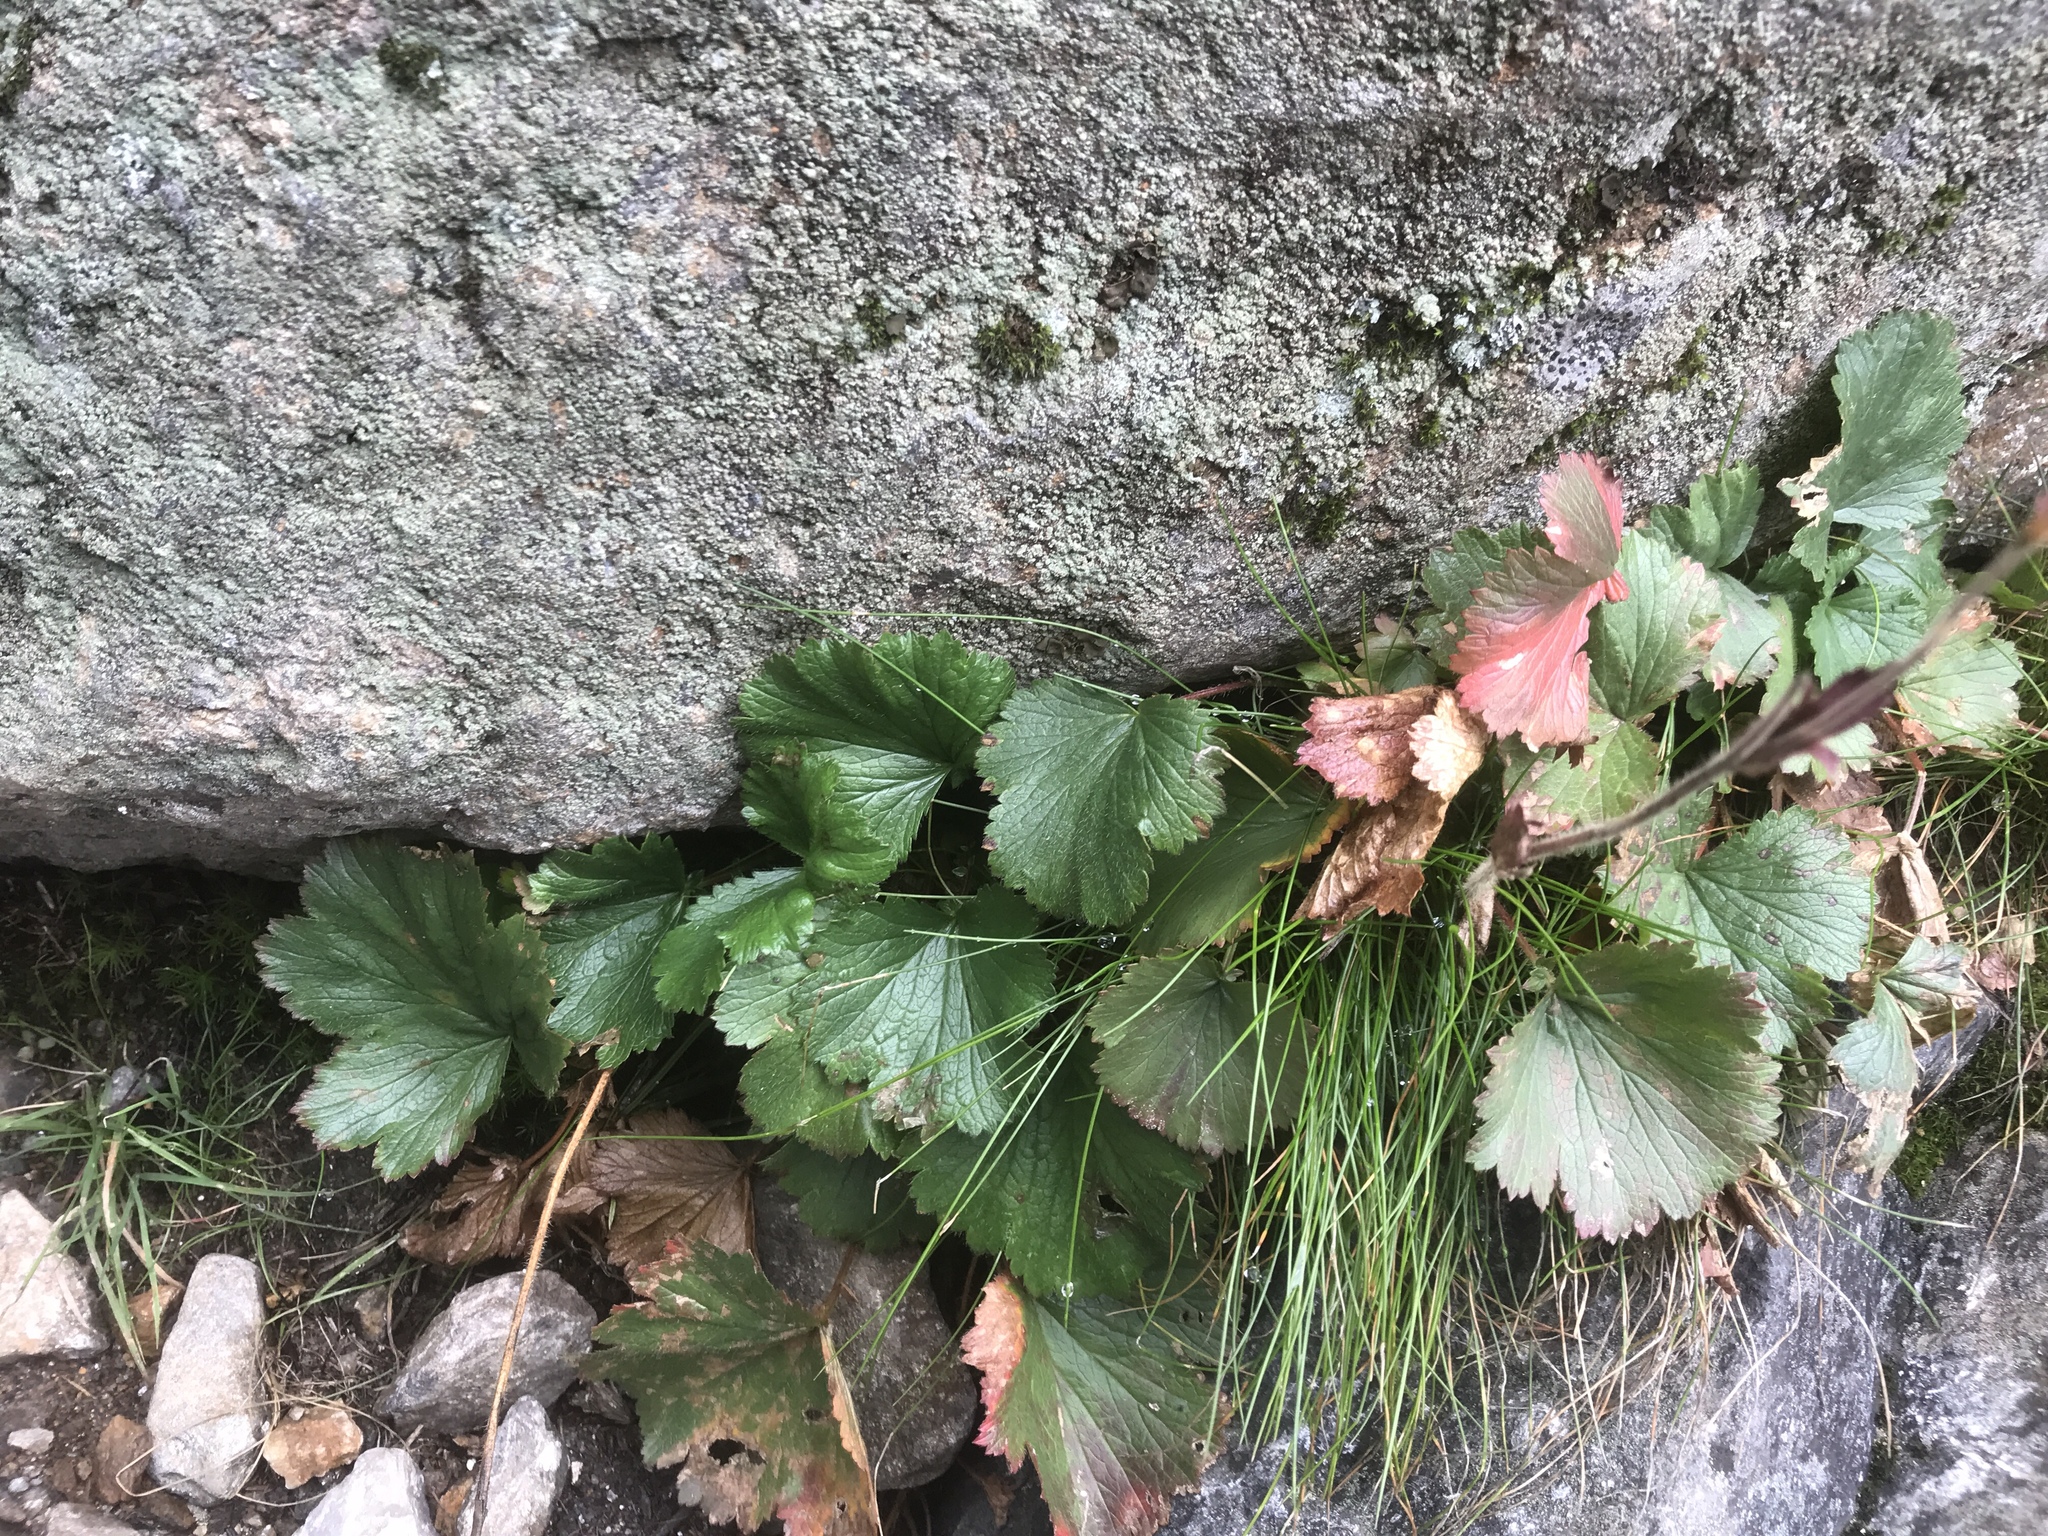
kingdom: Plantae
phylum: Tracheophyta
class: Magnoliopsida
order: Rosales
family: Rosaceae
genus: Geum
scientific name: Geum peckii
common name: Eastern mountain avens
